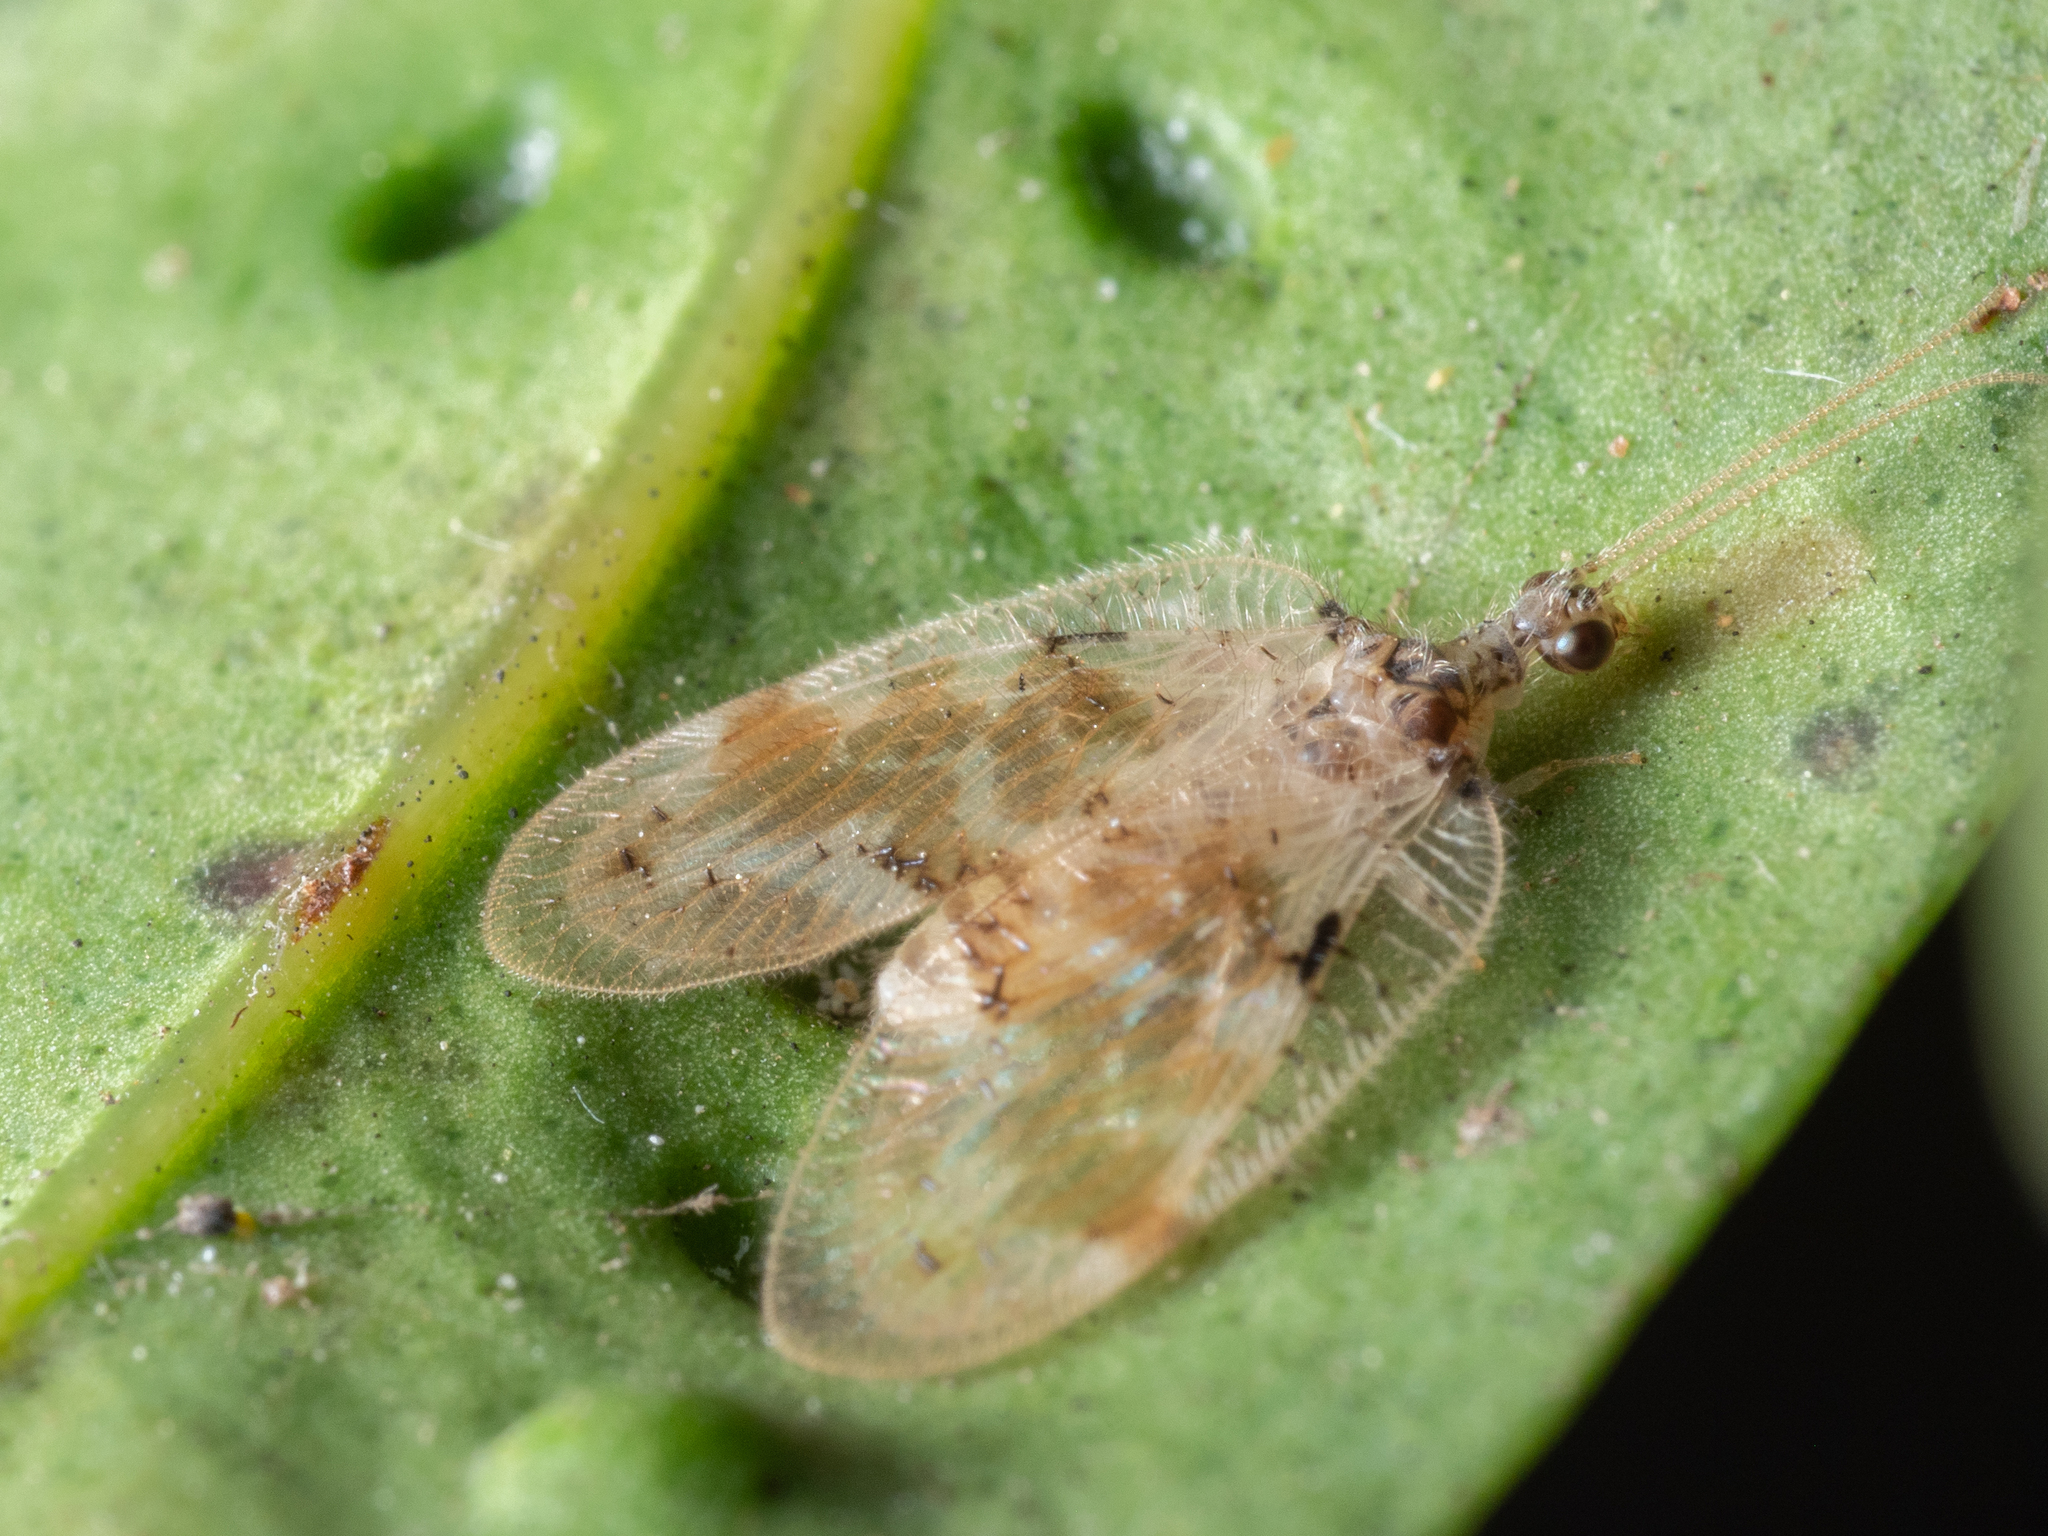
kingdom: Animalia
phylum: Arthropoda
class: Insecta
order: Neuroptera
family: Hemerobiidae
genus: Carobius
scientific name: Carobius pulchellus
